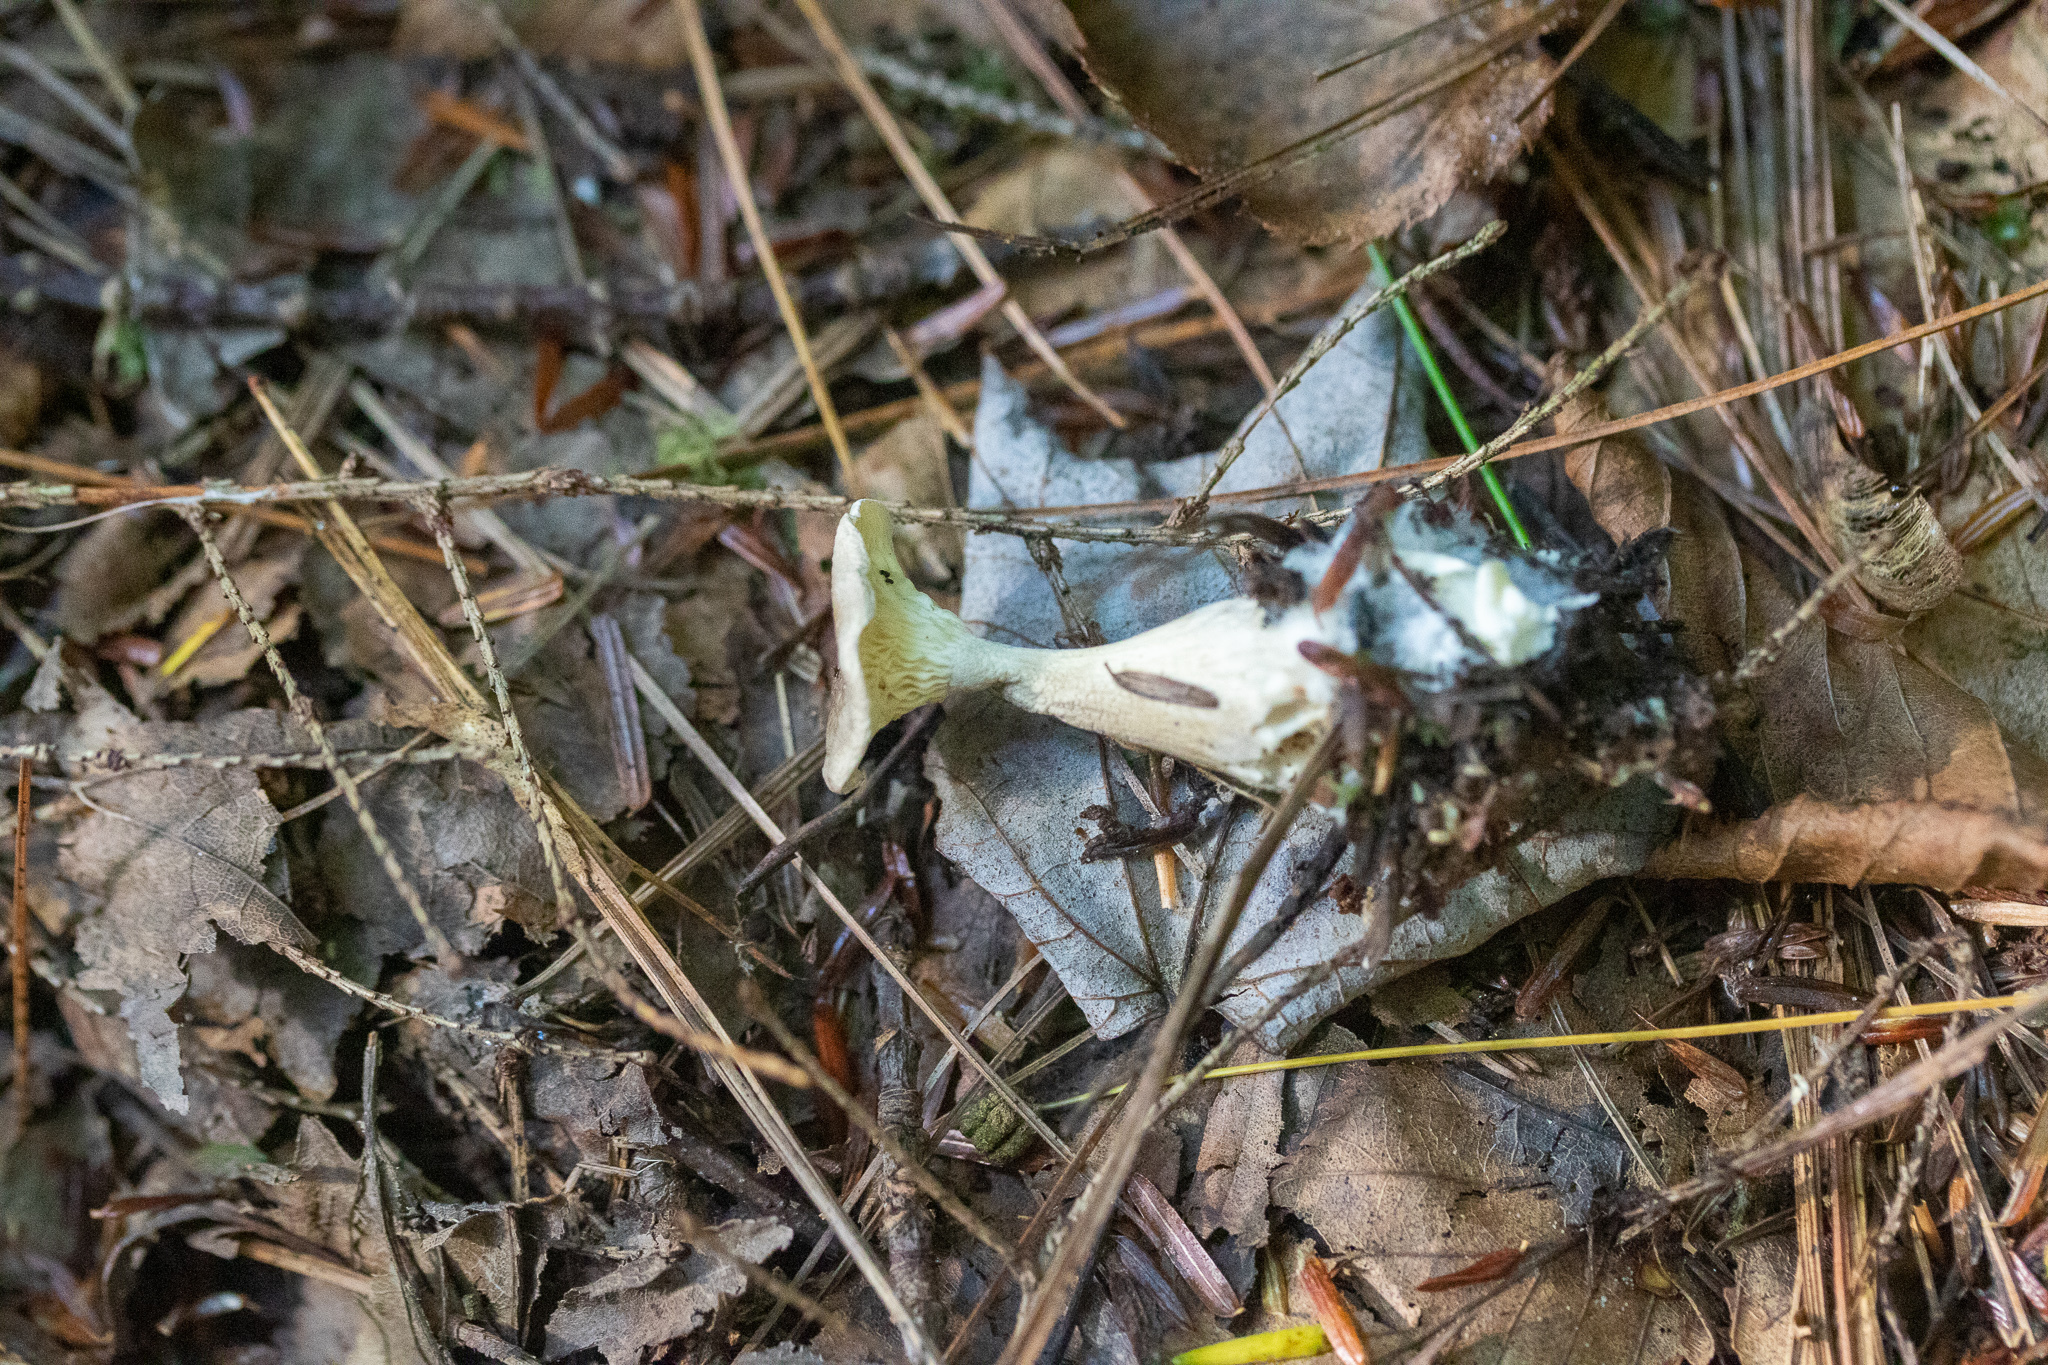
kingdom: Fungi
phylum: Basidiomycota
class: Agaricomycetes
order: Agaricales
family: Hygrophoraceae
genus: Ampulloclitocybe
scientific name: Ampulloclitocybe clavipes
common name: Club foot
